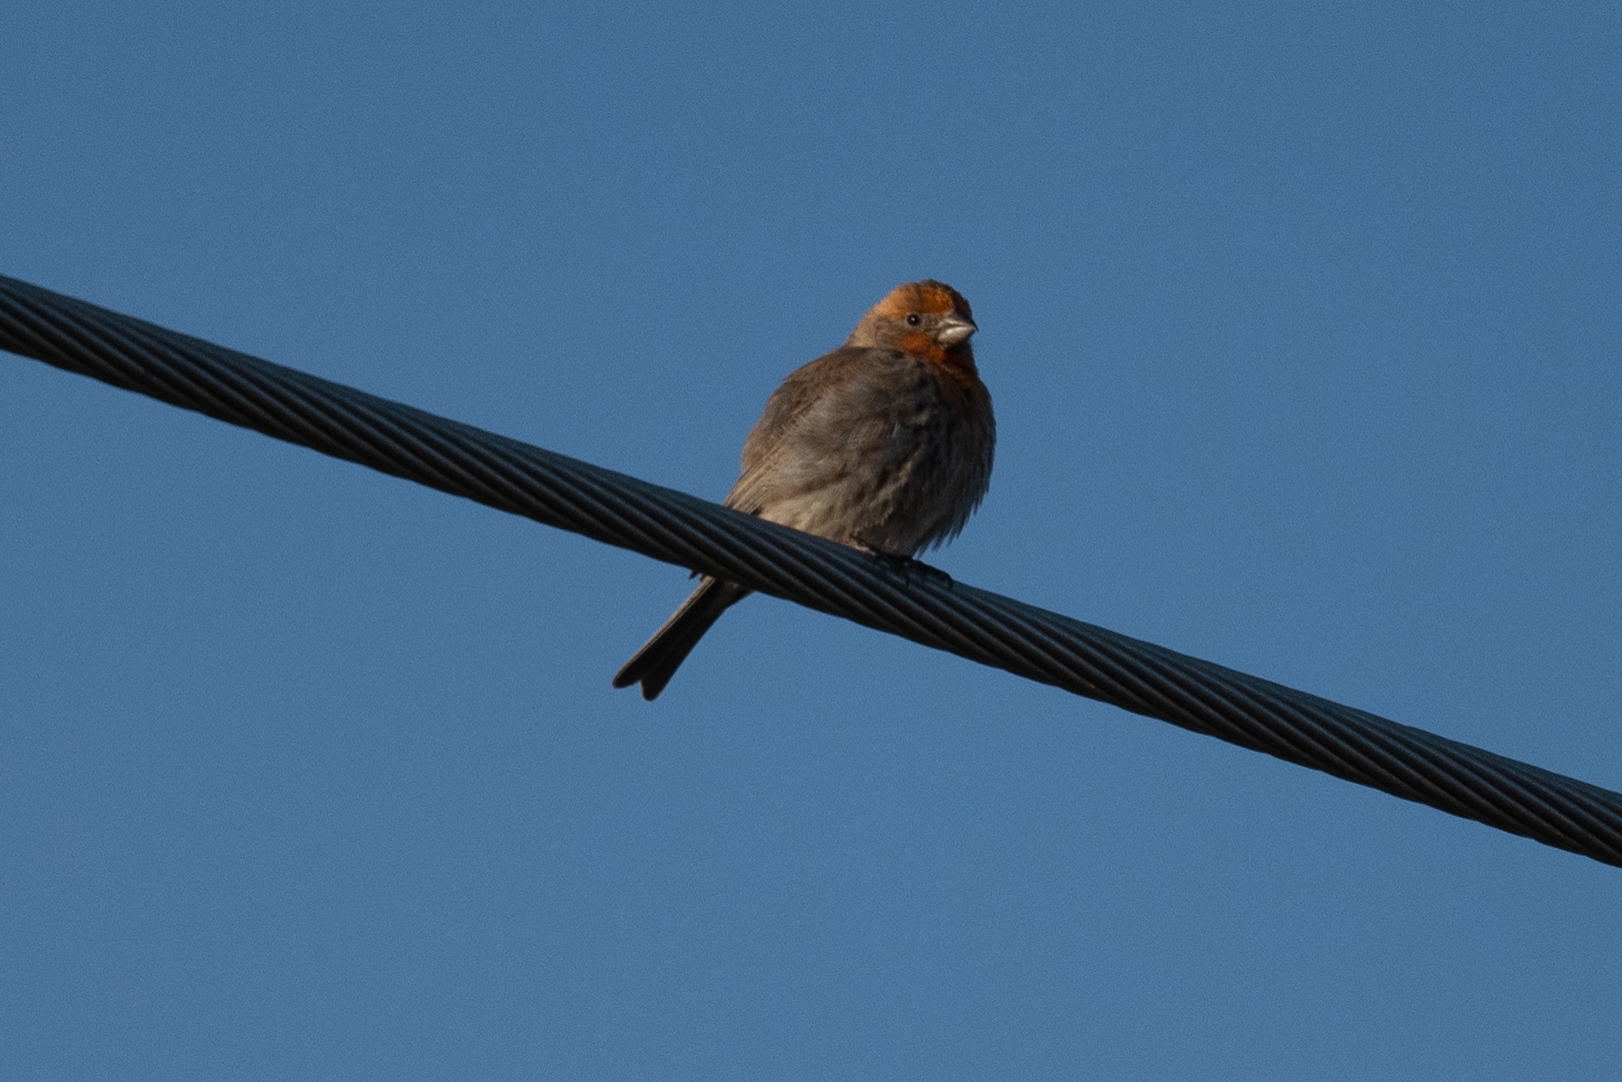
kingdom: Animalia
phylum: Chordata
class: Aves
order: Passeriformes
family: Fringillidae
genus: Haemorhous
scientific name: Haemorhous mexicanus
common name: House finch
